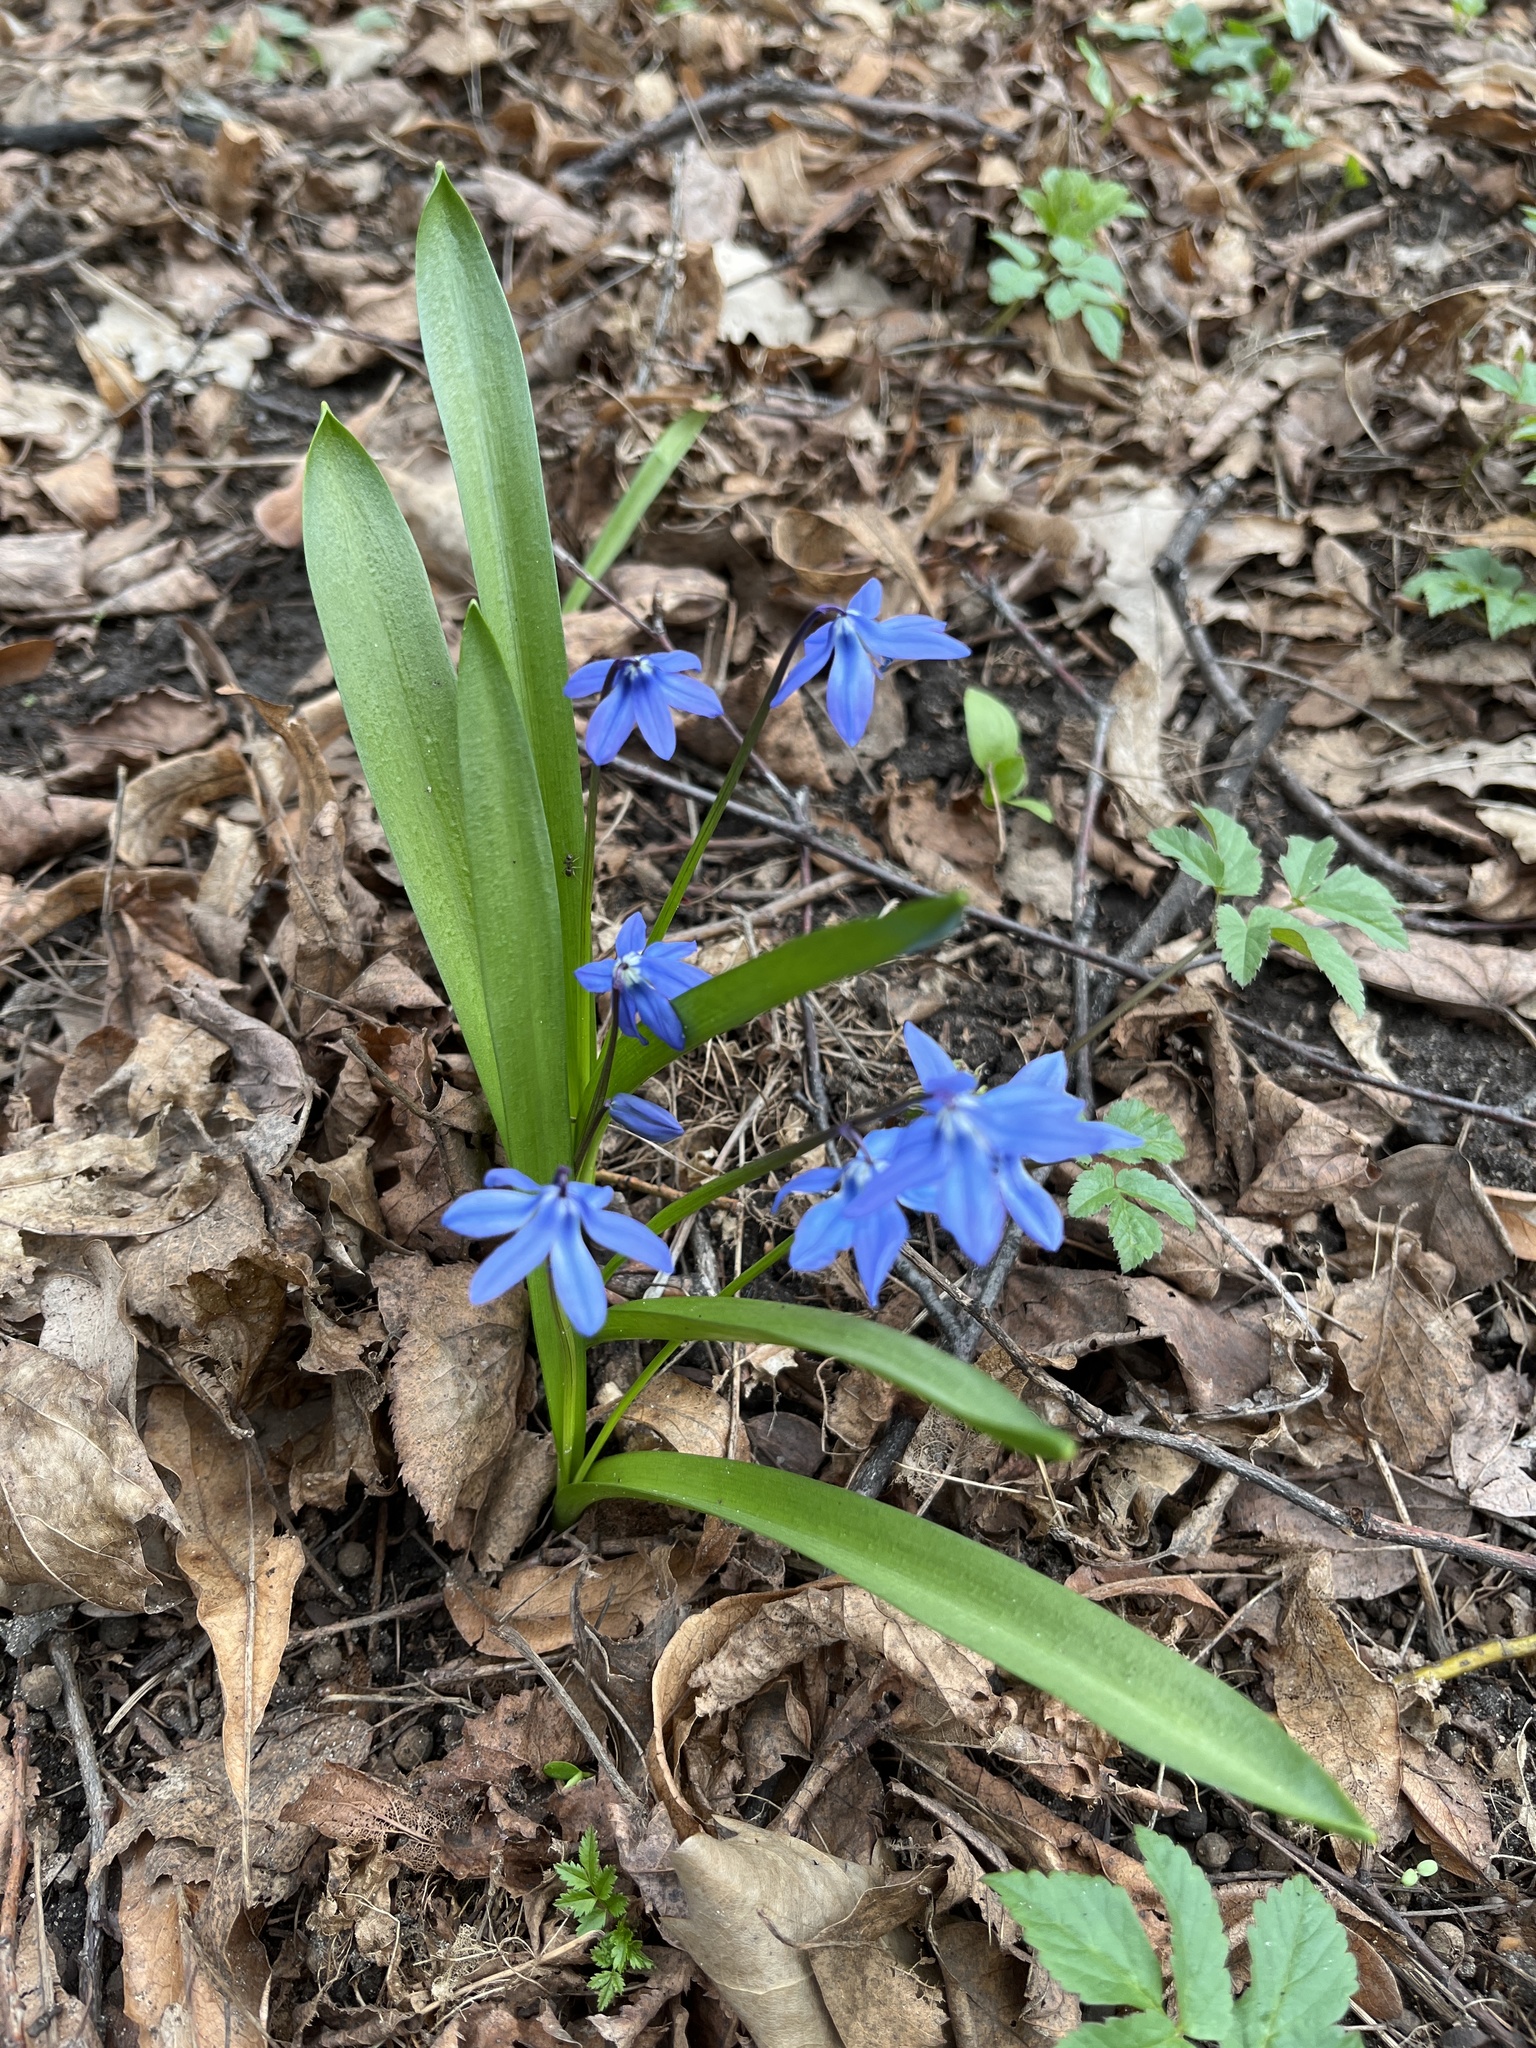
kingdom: Plantae
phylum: Tracheophyta
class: Liliopsida
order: Asparagales
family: Asparagaceae
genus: Scilla
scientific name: Scilla siberica
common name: Siberian squill
